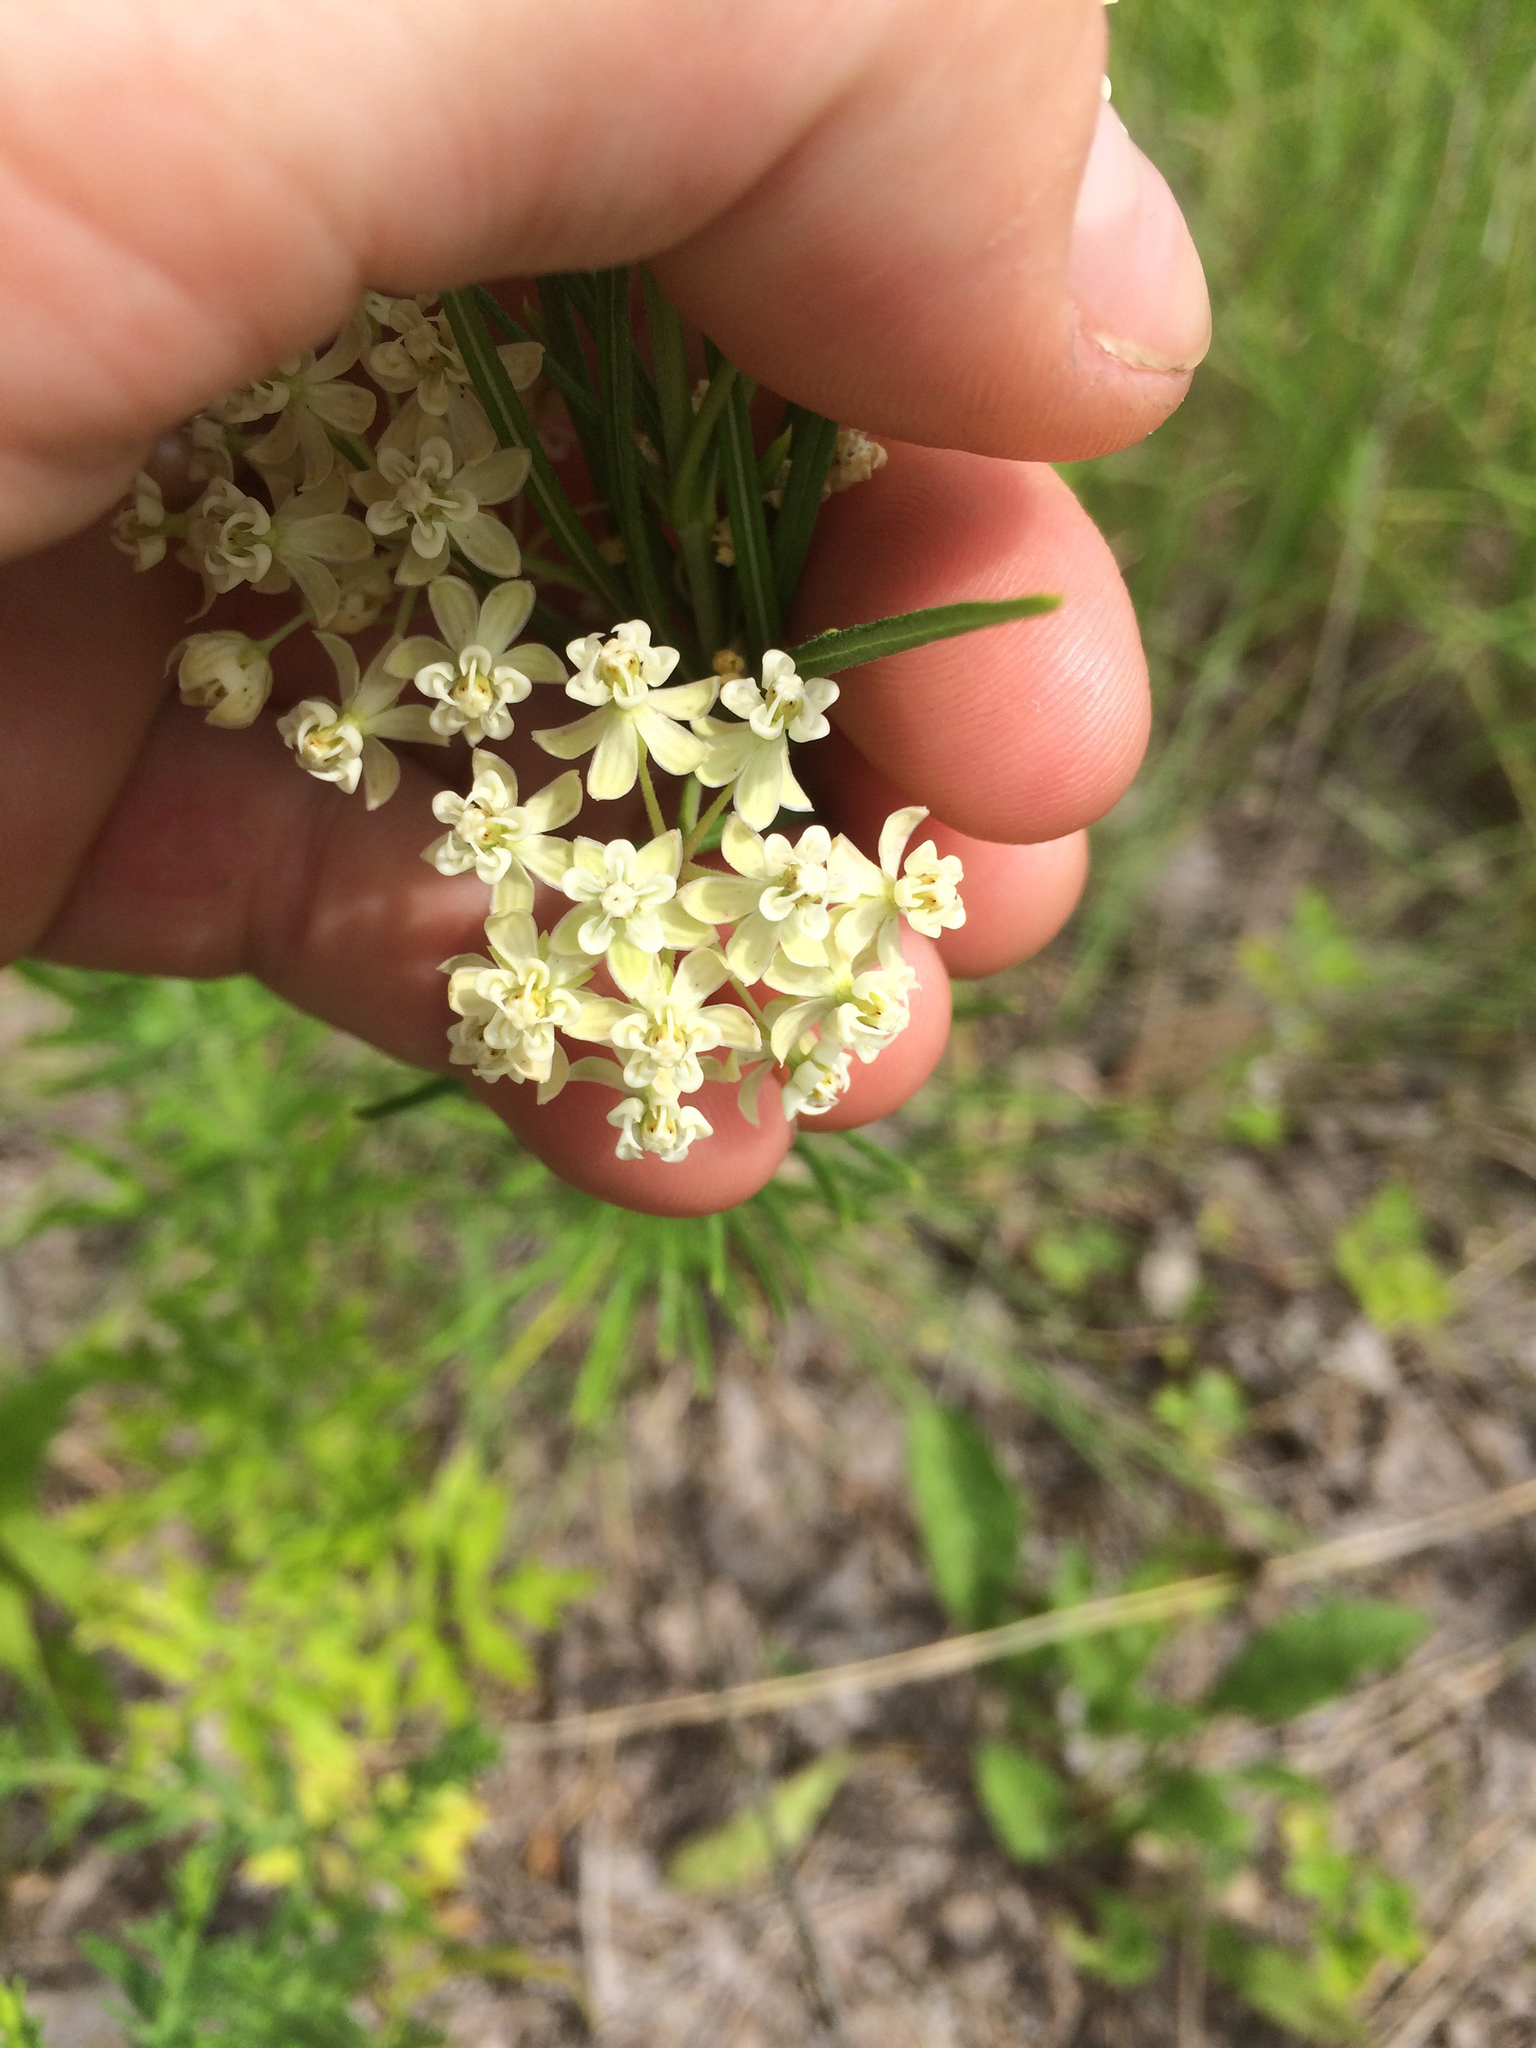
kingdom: Plantae
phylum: Tracheophyta
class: Magnoliopsida
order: Gentianales
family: Apocynaceae
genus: Asclepias
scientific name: Asclepias verticillata
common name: Eastern whorled milkweed
